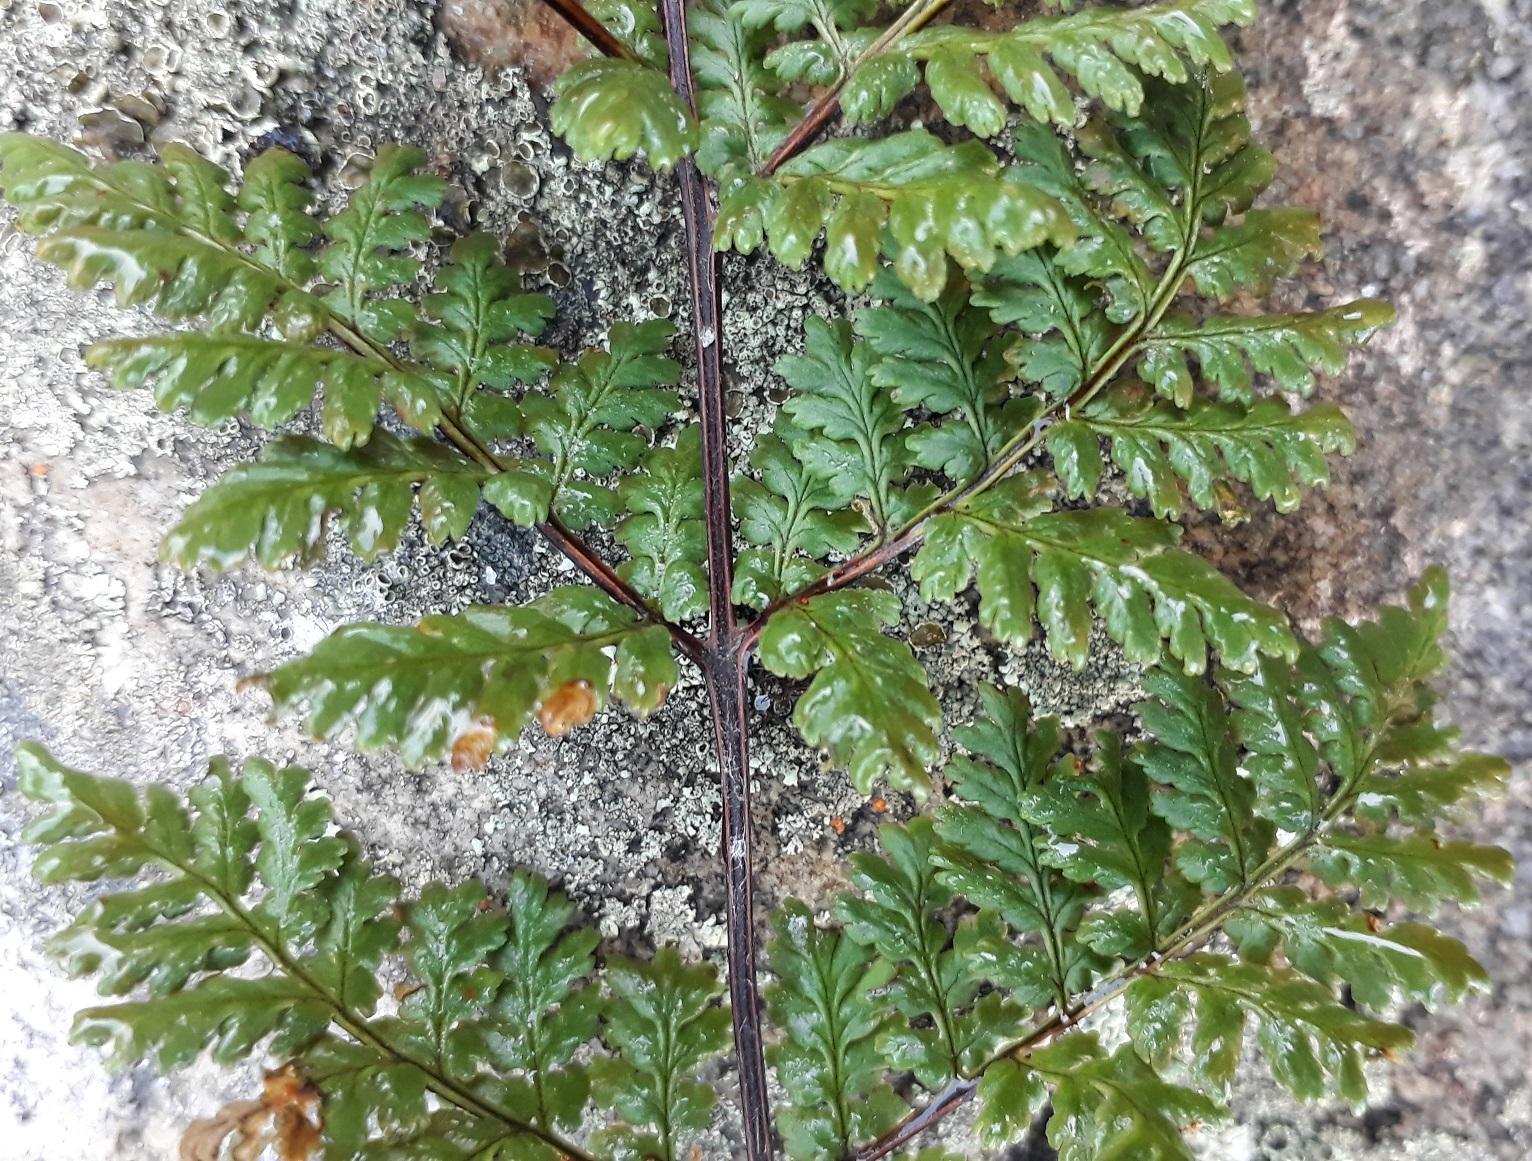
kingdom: Plantae
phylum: Tracheophyta
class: Polypodiopsida
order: Polypodiales
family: Pteridaceae
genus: Cheilanthes
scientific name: Cheilanthes multifida
